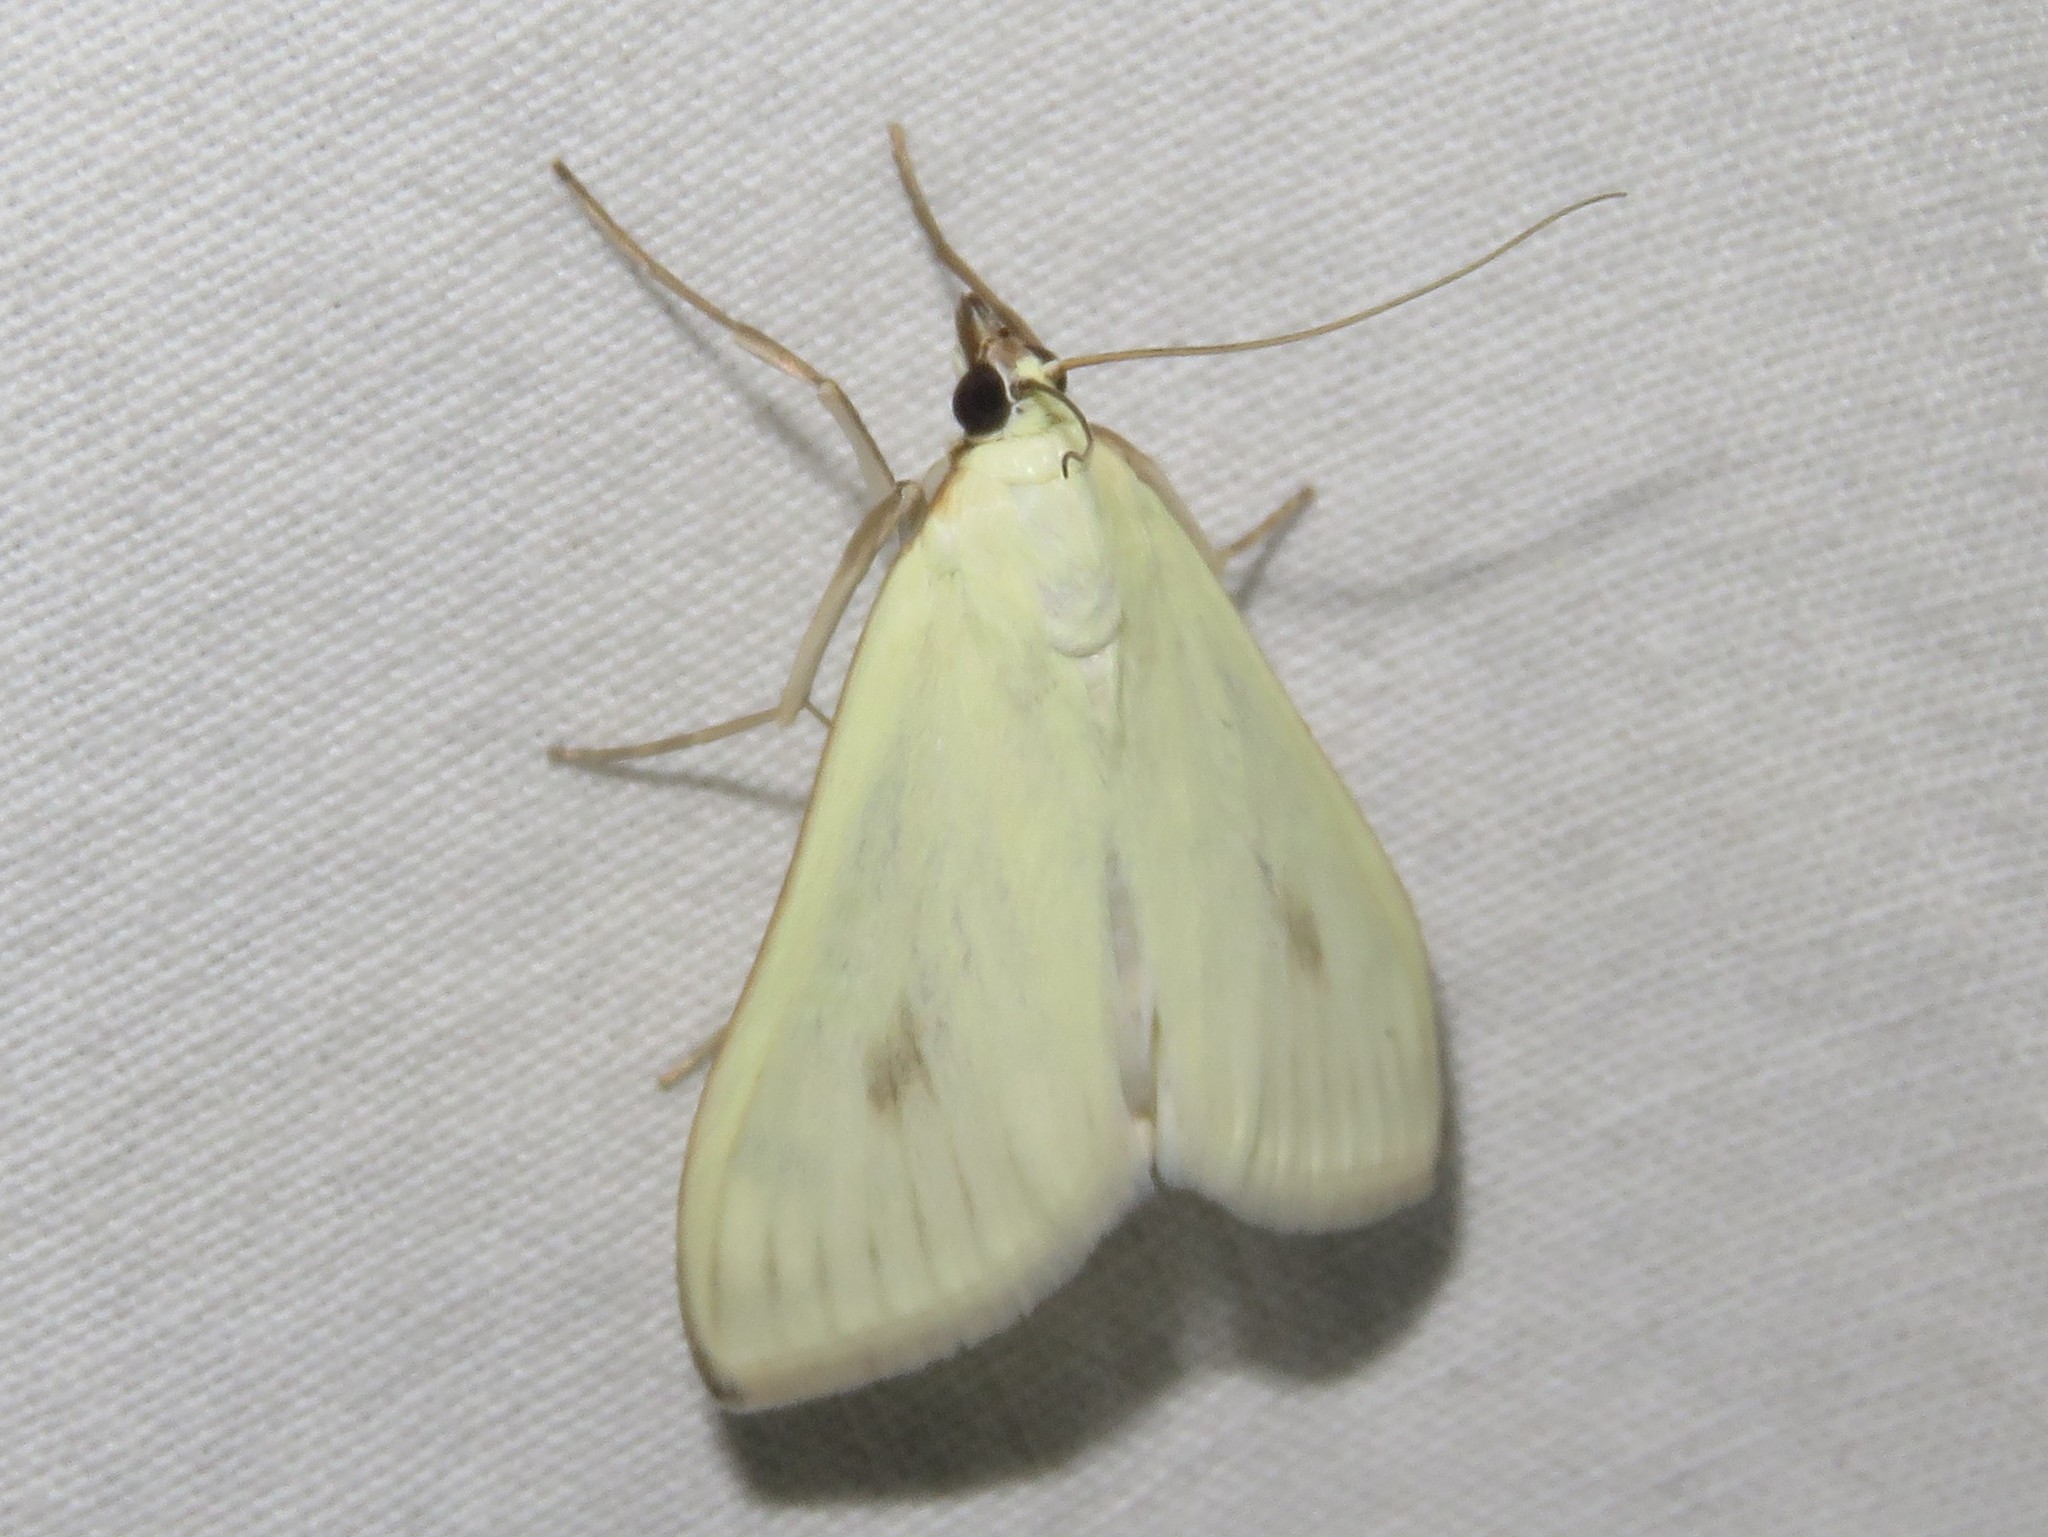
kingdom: Animalia
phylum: Arthropoda
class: Insecta
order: Lepidoptera
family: Crambidae
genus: Sitochroa
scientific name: Sitochroa palealis
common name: Greenish-yellow sitochroa moth
